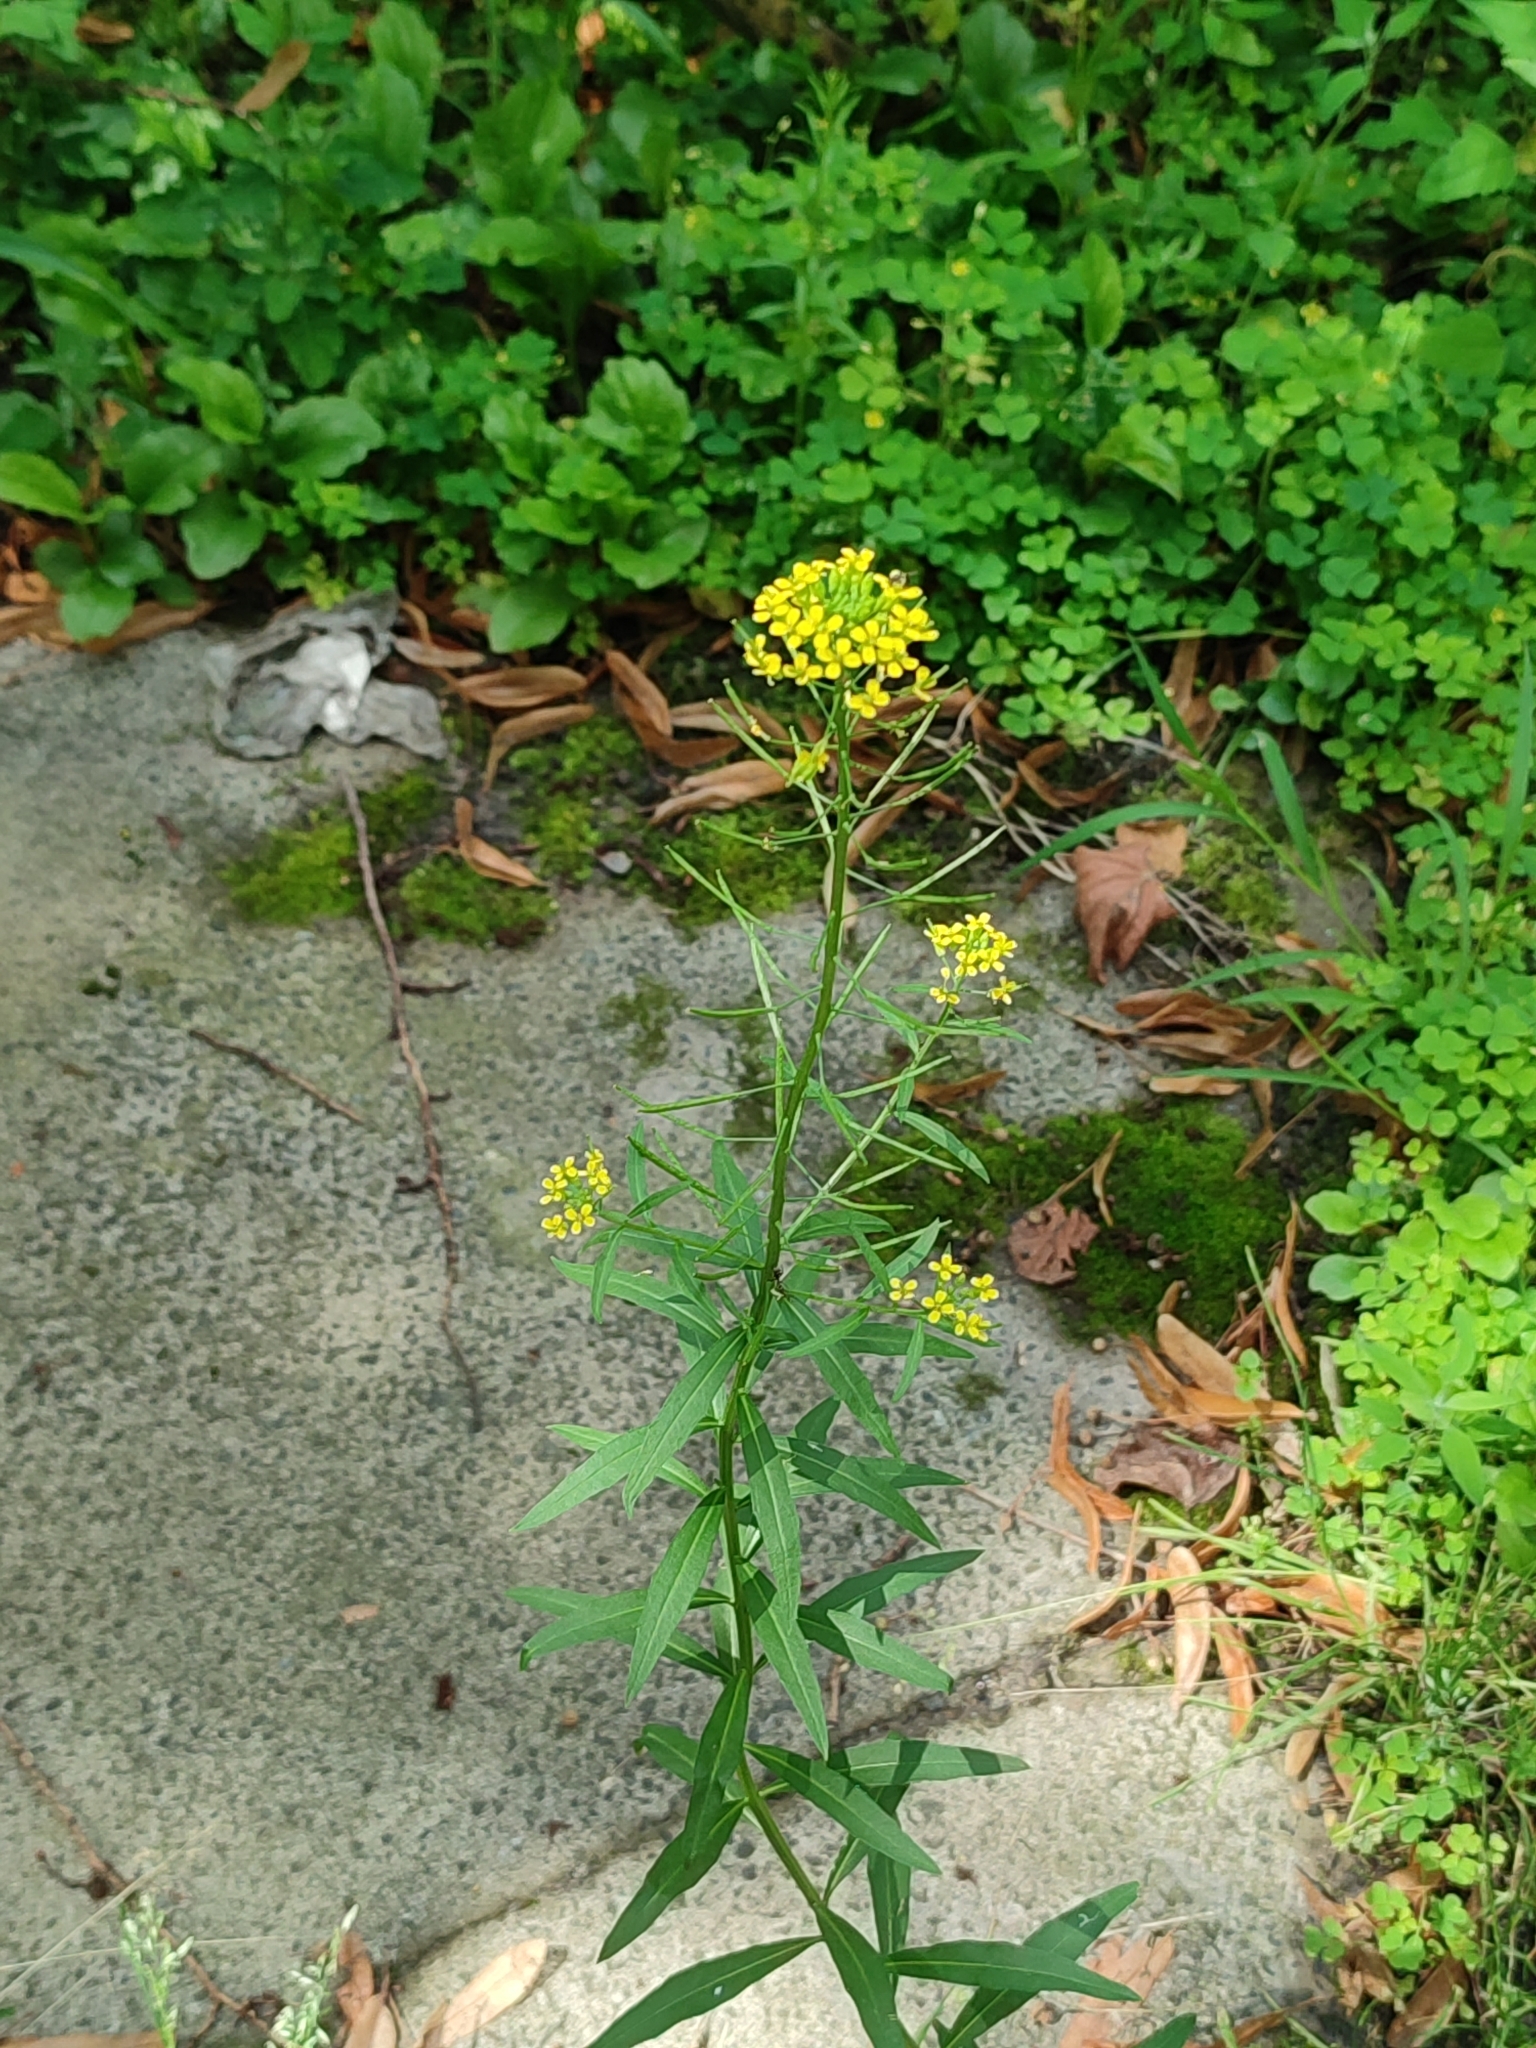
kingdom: Plantae
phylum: Tracheophyta
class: Magnoliopsida
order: Brassicales
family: Brassicaceae
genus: Erysimum
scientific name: Erysimum cheiranthoides
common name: Treacle mustard
